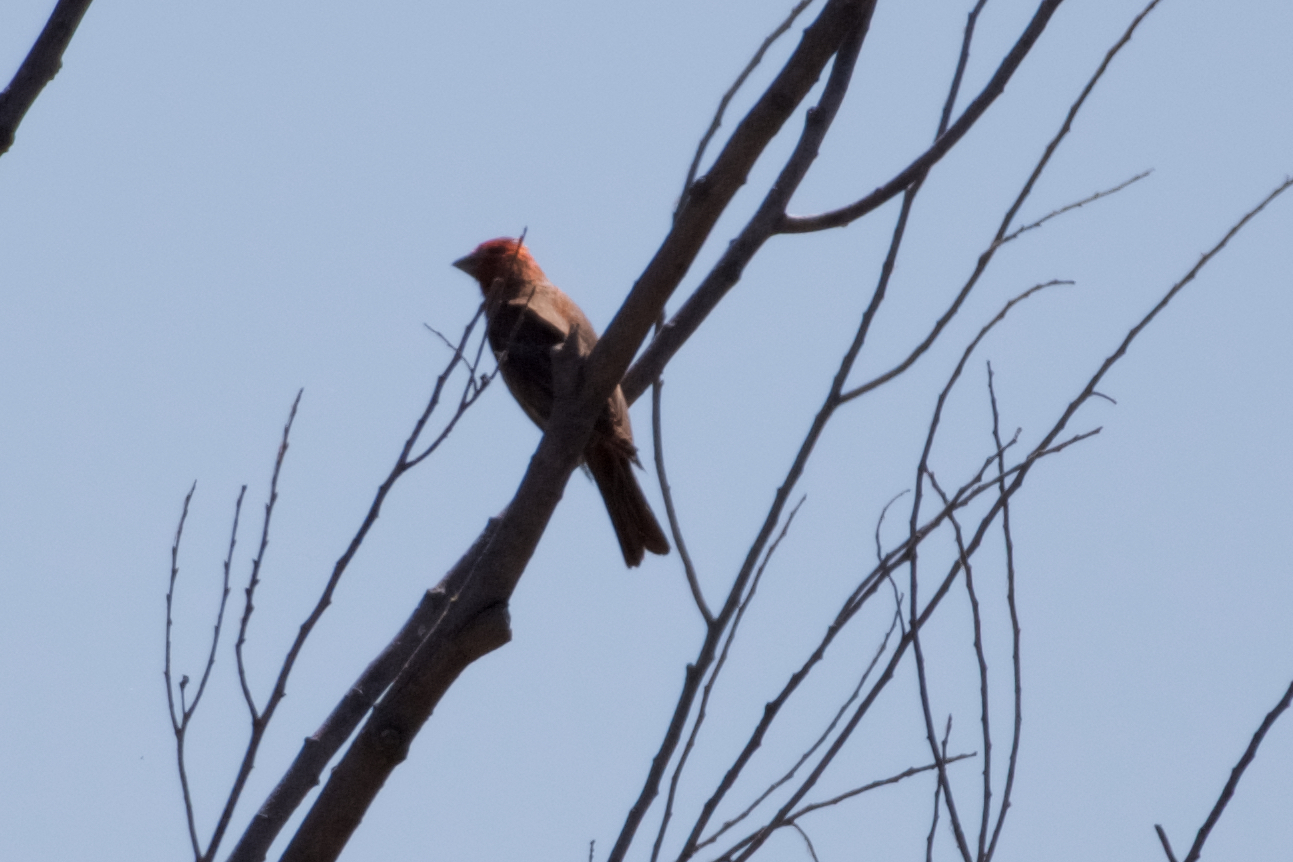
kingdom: Animalia
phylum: Chordata
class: Aves
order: Passeriformes
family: Fringillidae
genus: Haemorhous
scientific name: Haemorhous mexicanus
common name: House finch
